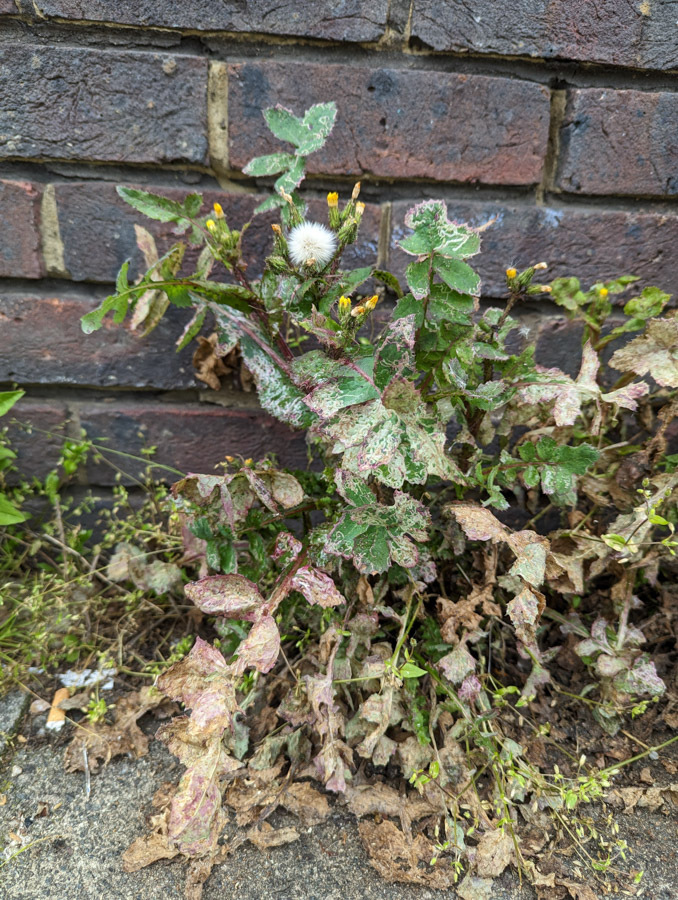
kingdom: Plantae
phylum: Tracheophyta
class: Magnoliopsida
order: Asterales
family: Asteraceae
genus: Sonchus
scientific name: Sonchus oleraceus
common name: Common sowthistle
